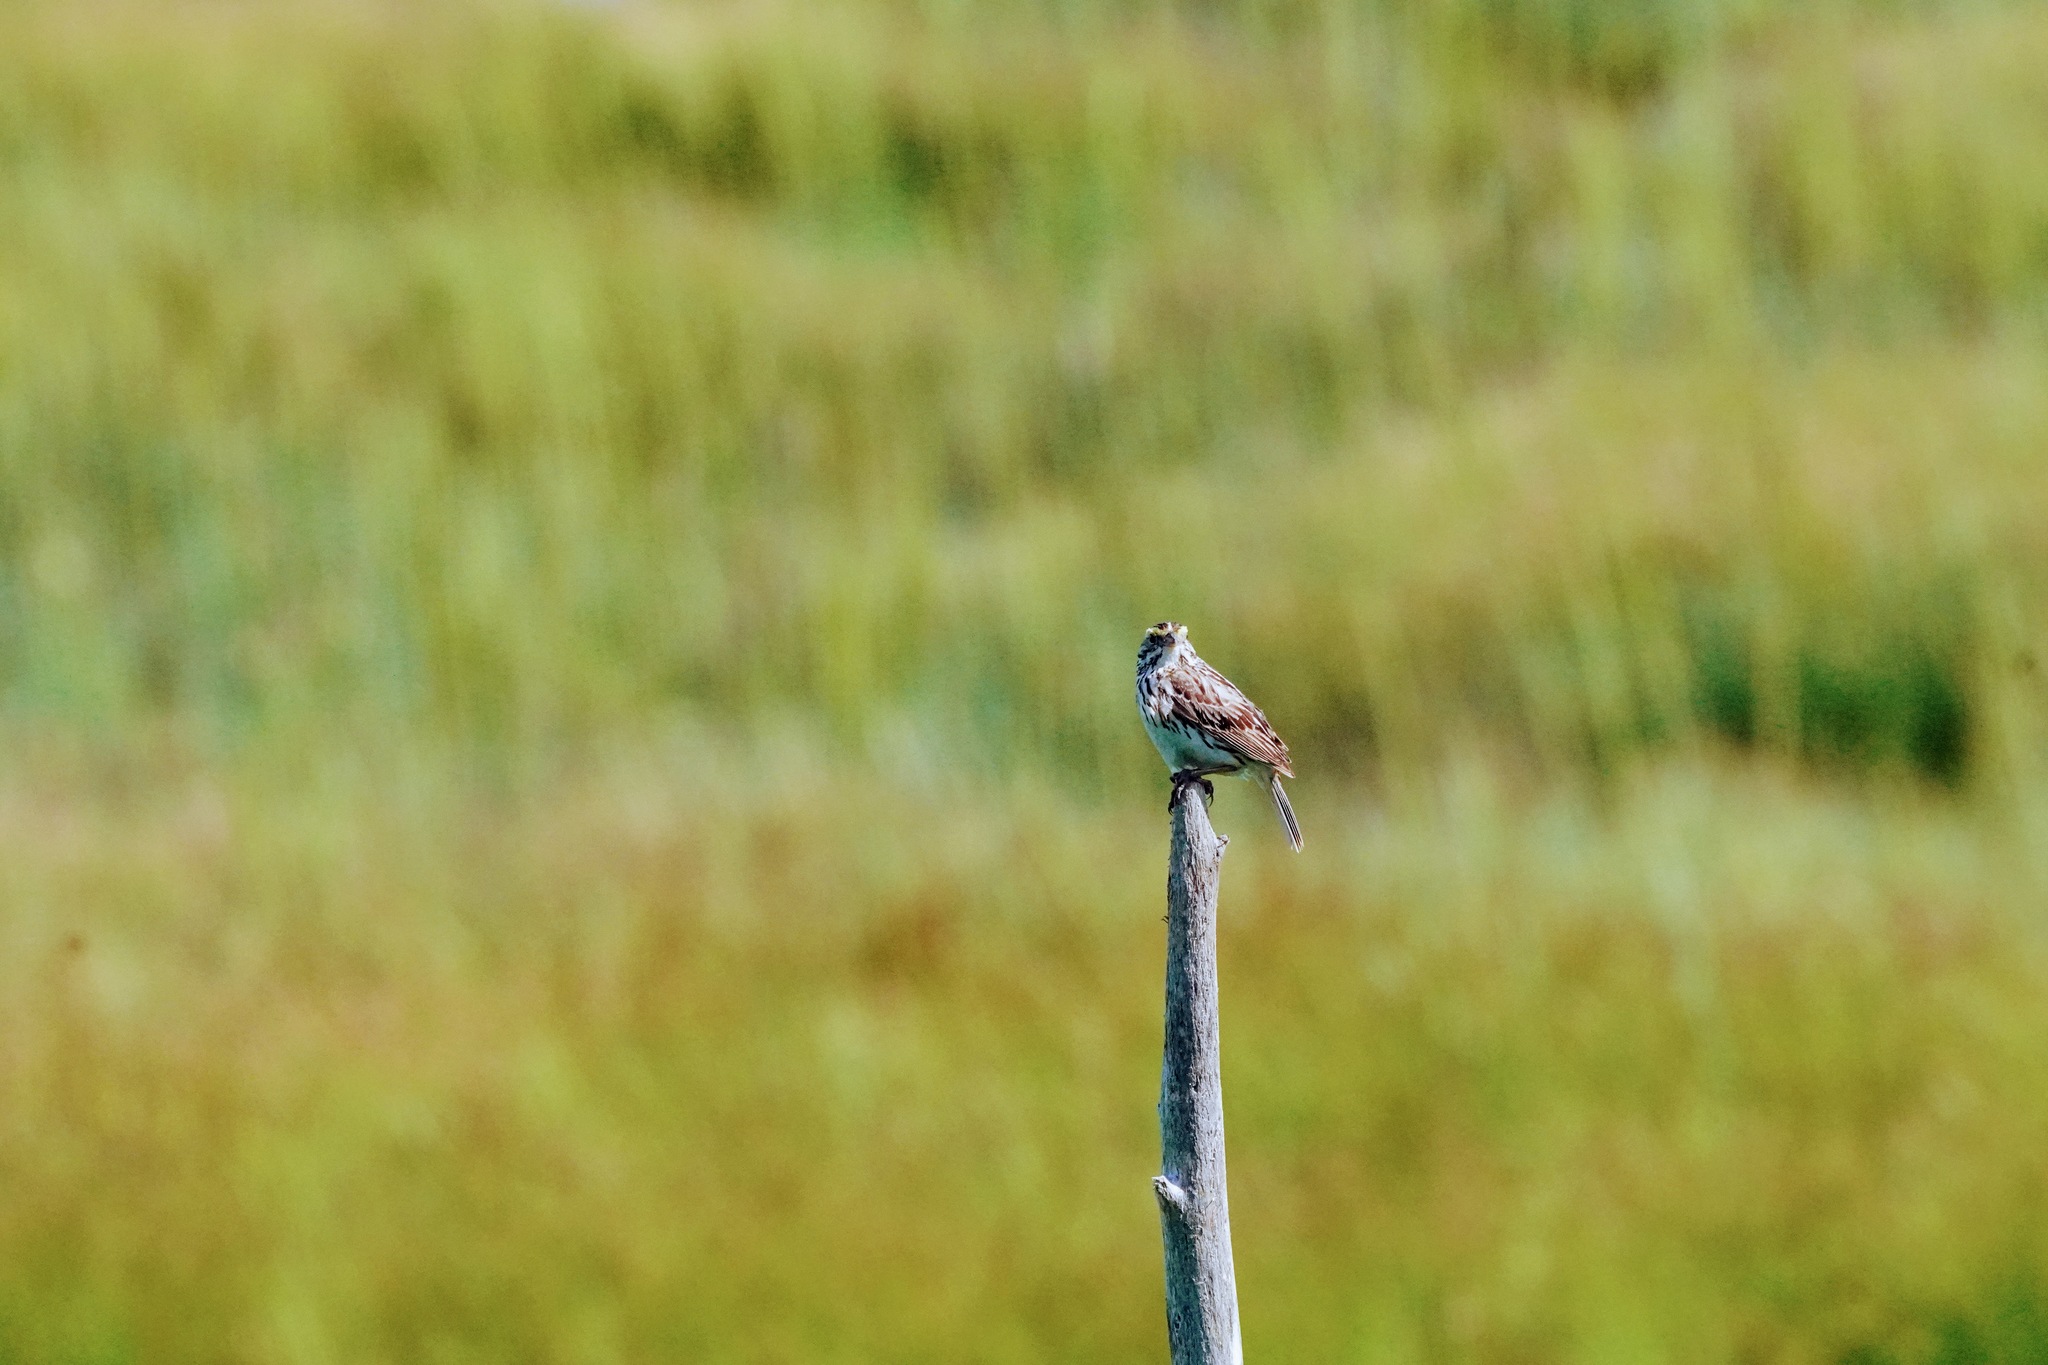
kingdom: Animalia
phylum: Chordata
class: Aves
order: Passeriformes
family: Passerellidae
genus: Passerculus
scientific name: Passerculus sandwichensis
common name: Savannah sparrow
